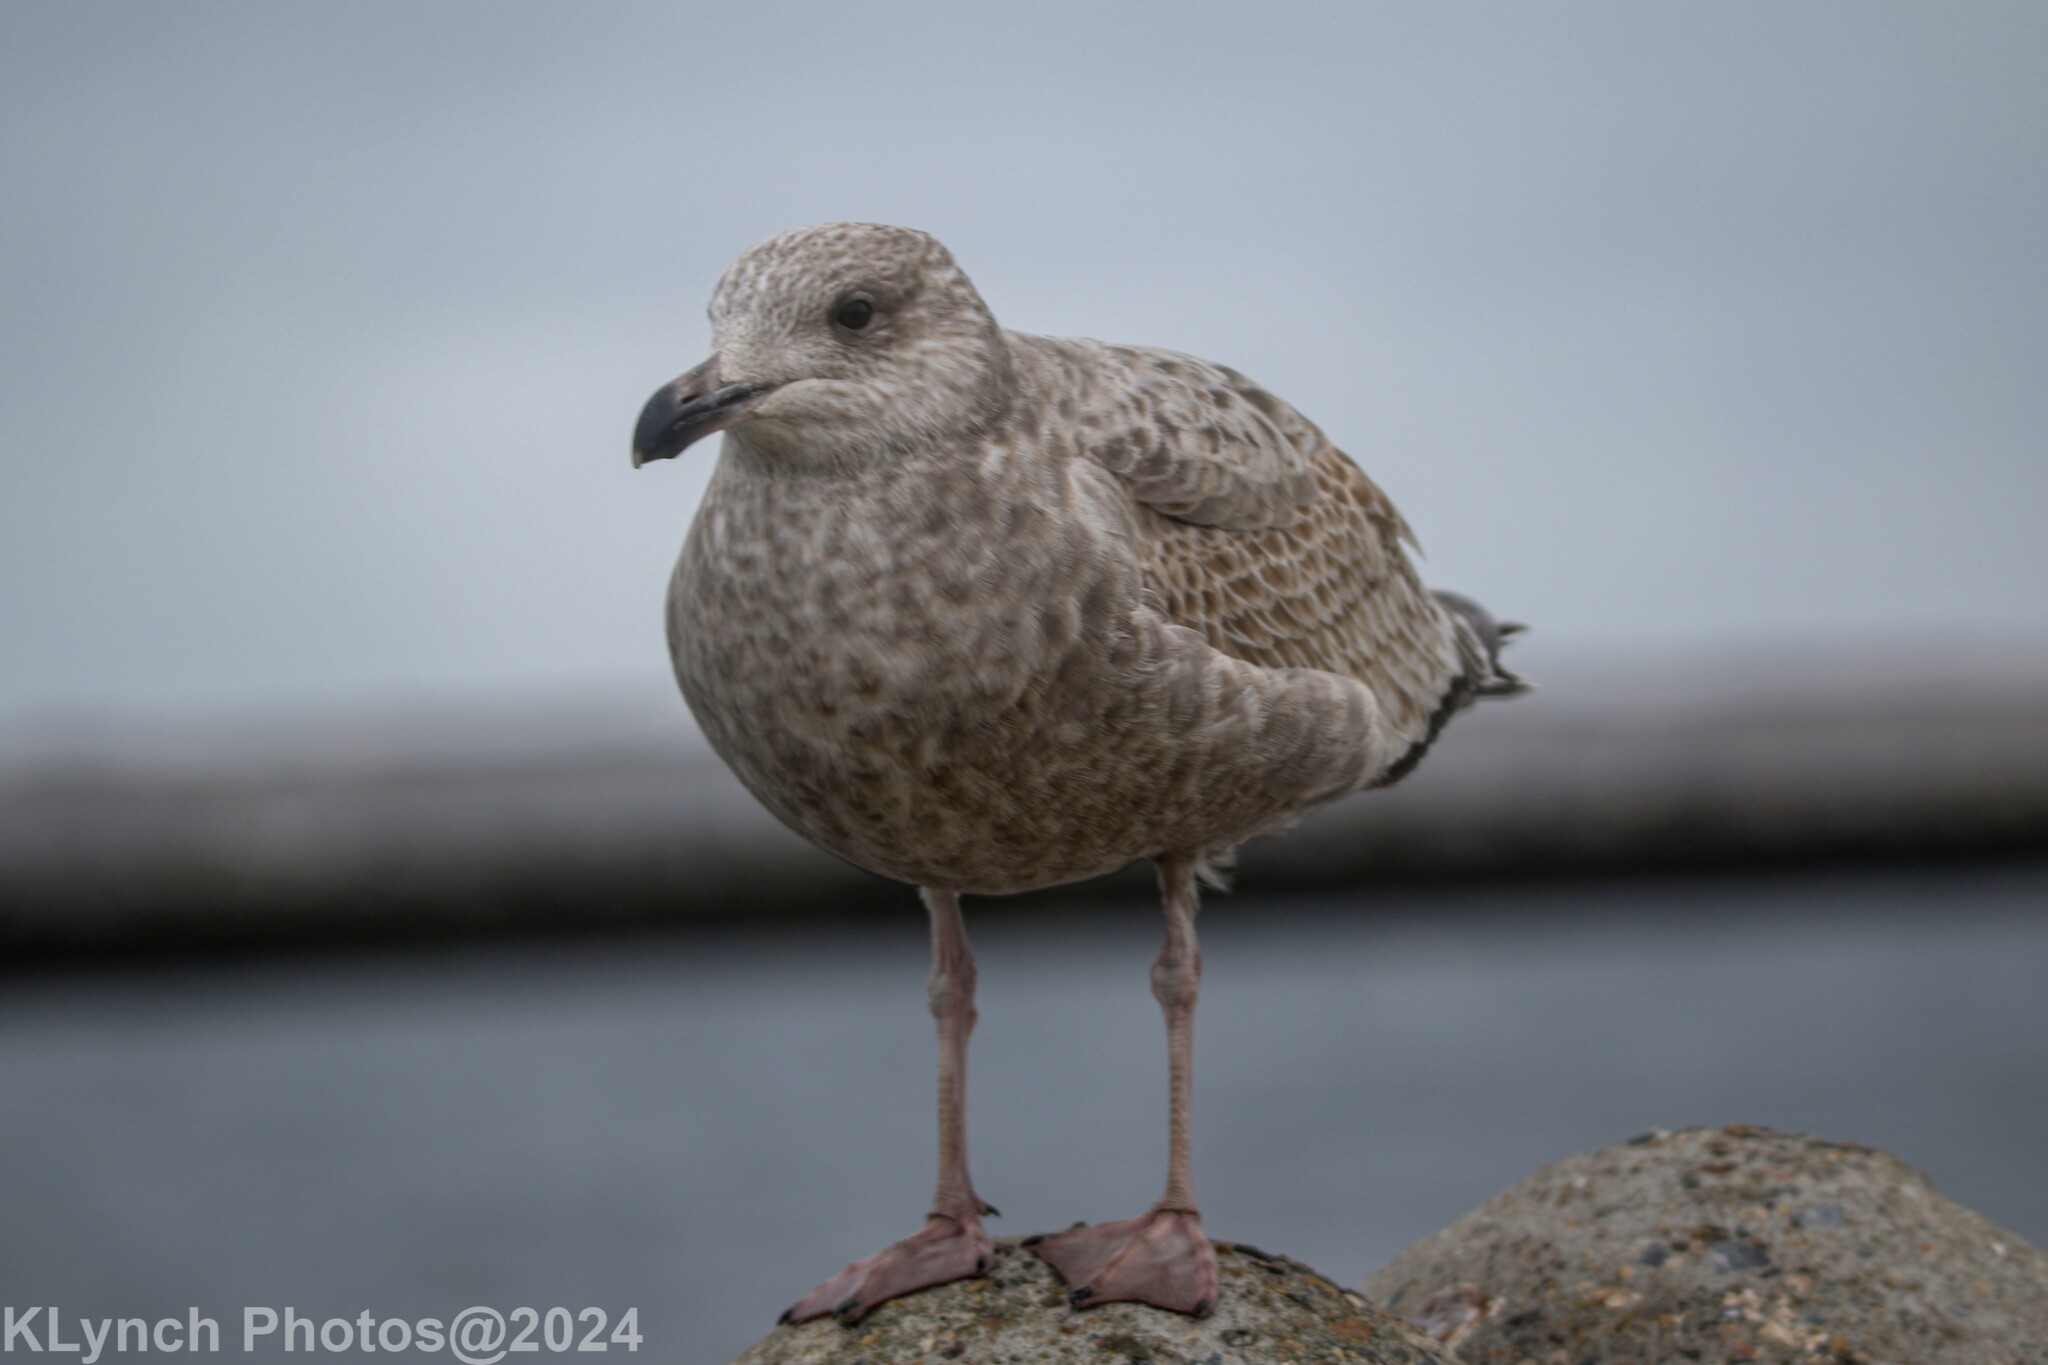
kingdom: Animalia
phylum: Chordata
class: Aves
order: Charadriiformes
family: Laridae
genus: Larus
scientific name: Larus argentatus
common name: Herring gull
